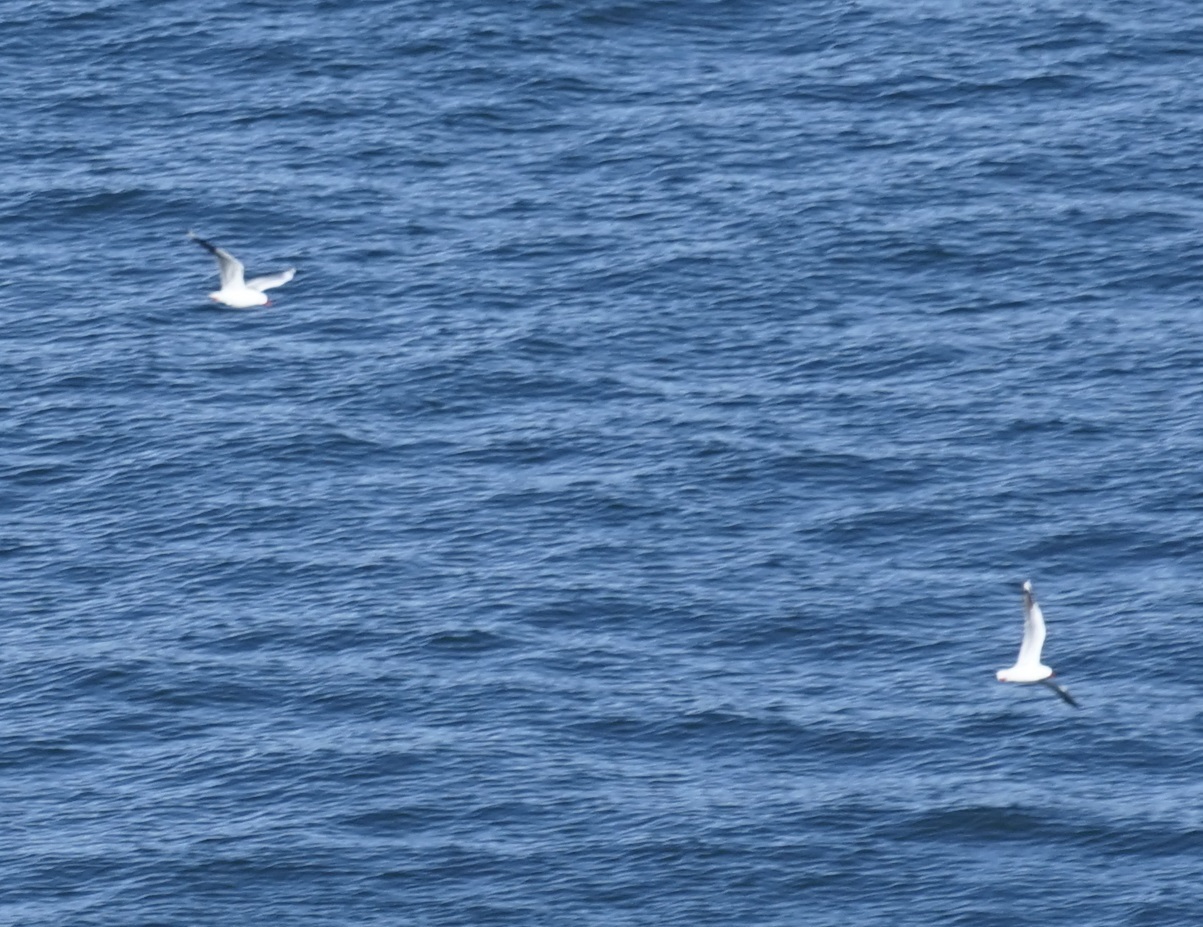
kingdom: Animalia
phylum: Chordata
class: Aves
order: Charadriiformes
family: Laridae
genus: Chroicocephalus
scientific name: Chroicocephalus novaehollandiae
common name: Silver gull
